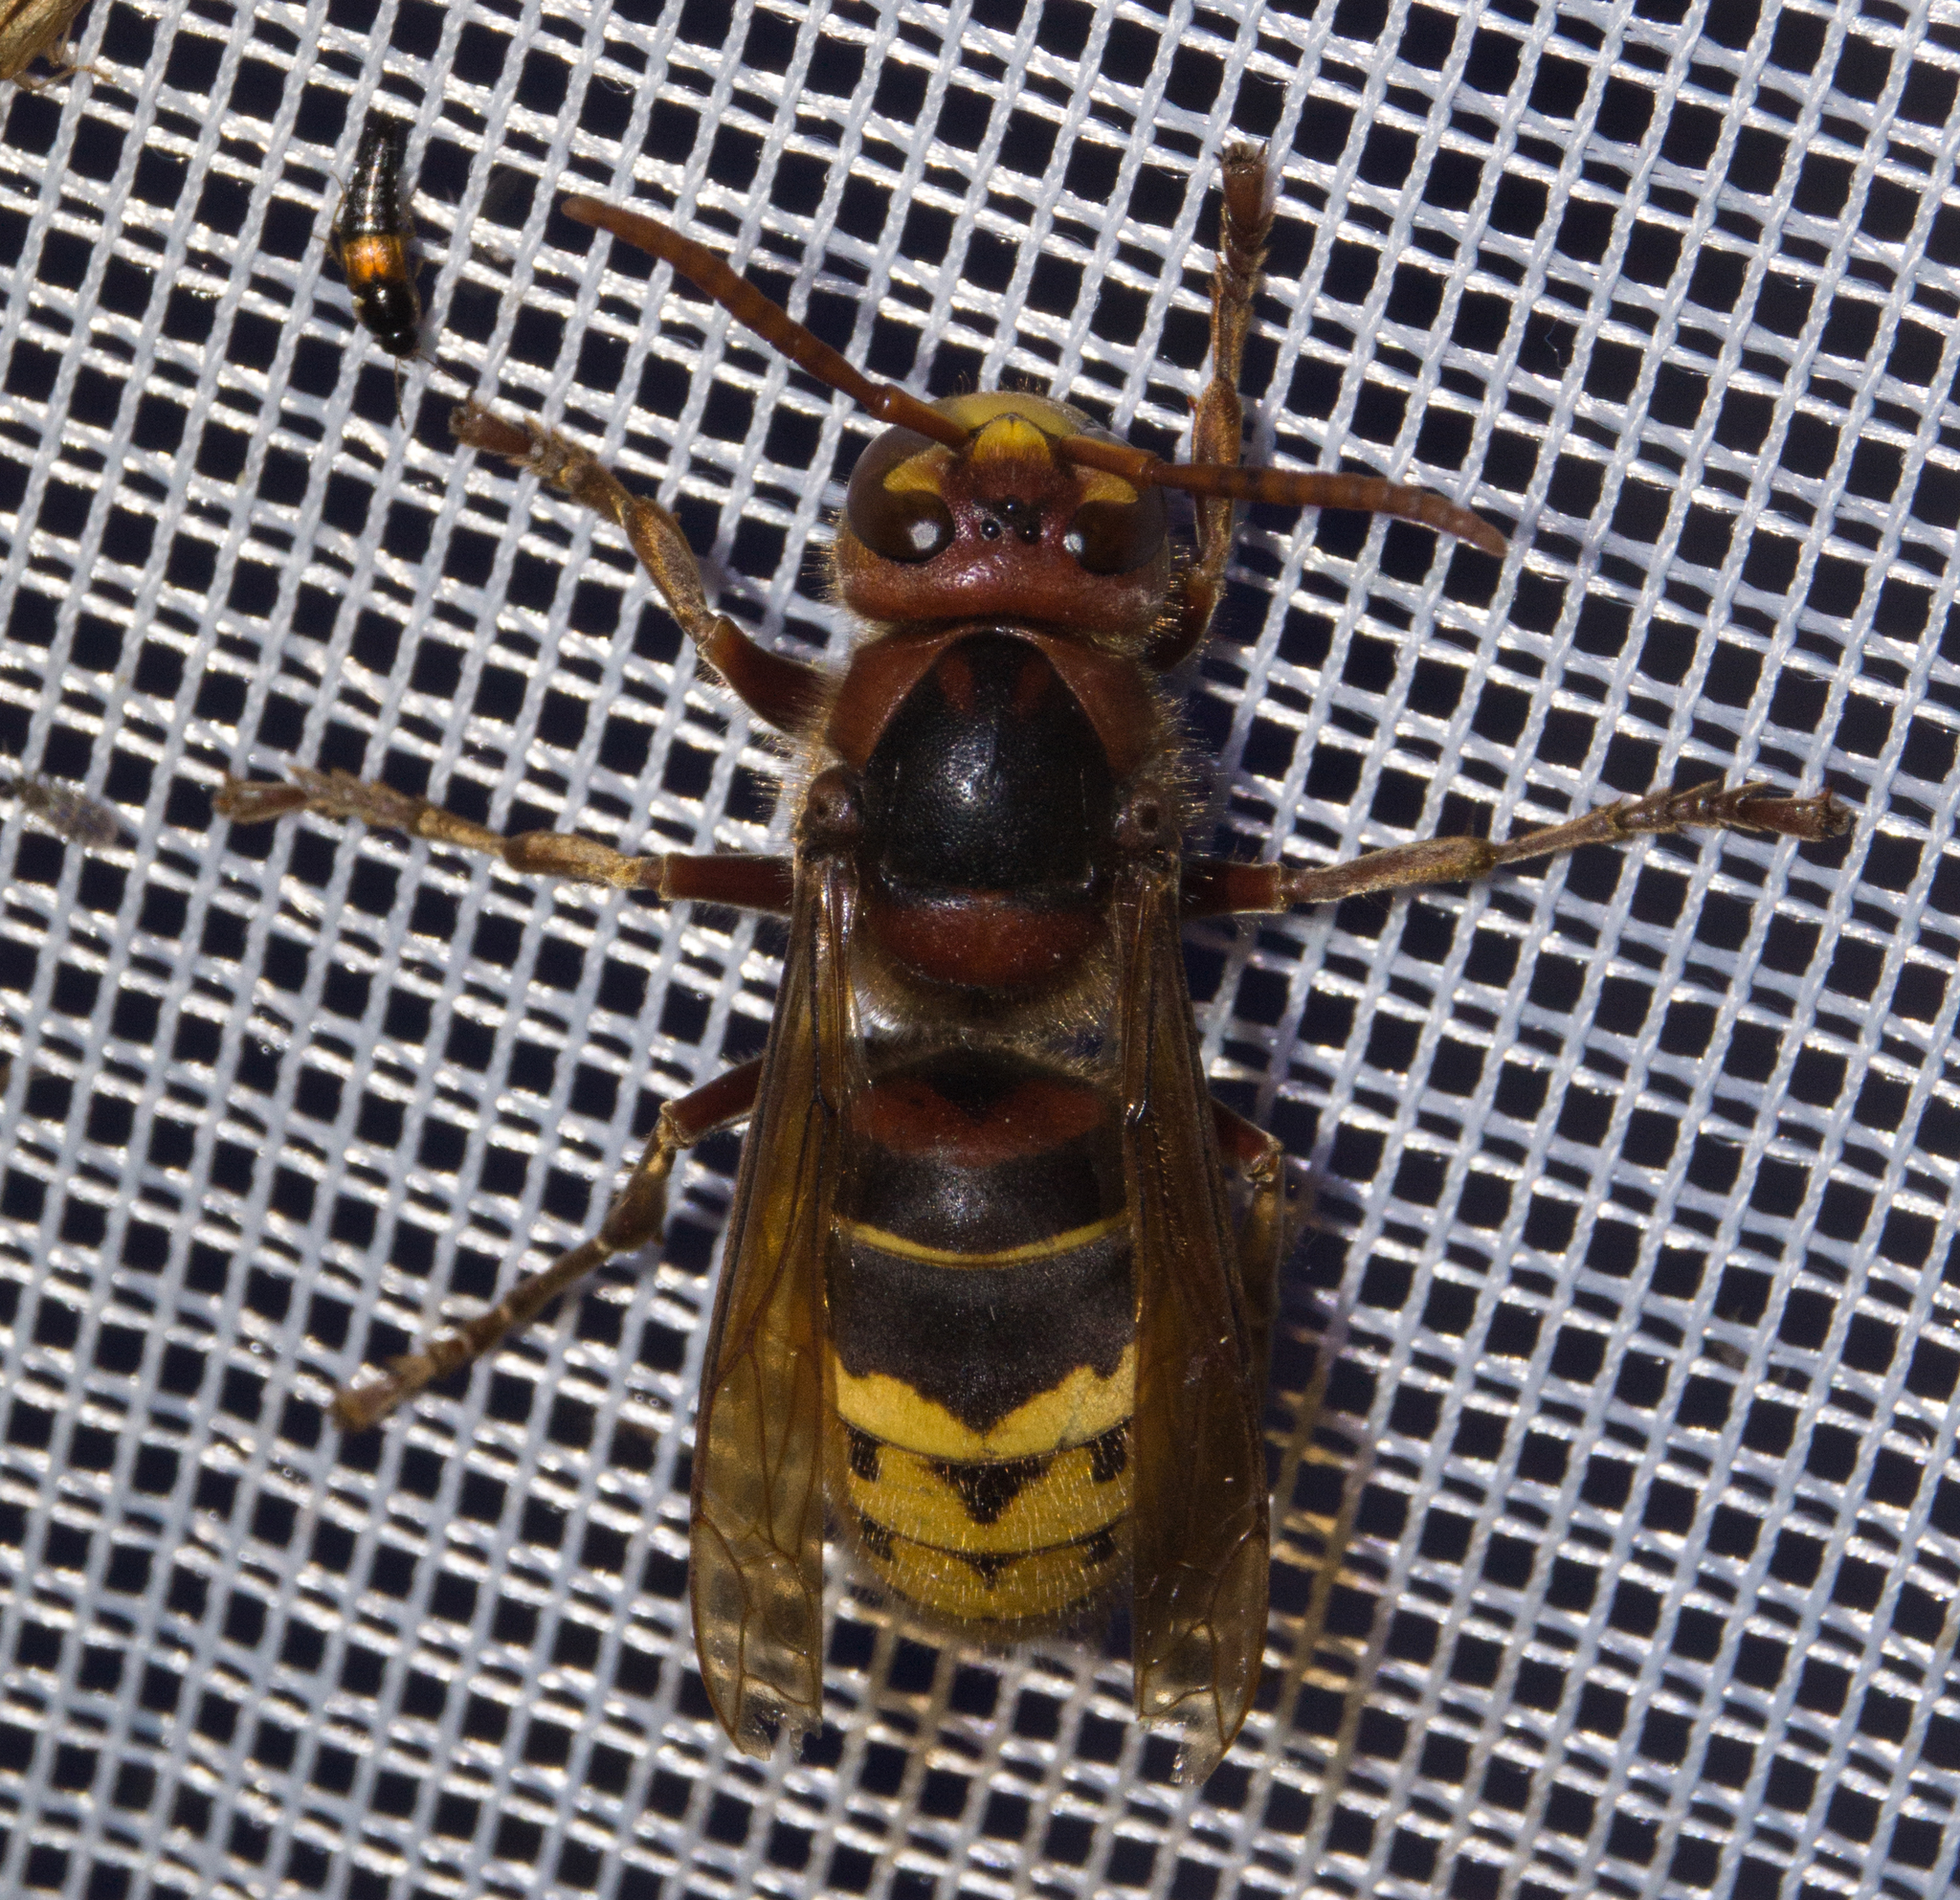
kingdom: Animalia
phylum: Arthropoda
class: Insecta
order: Hymenoptera
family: Vespidae
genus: Vespa
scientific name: Vespa crabro
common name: Hornet
